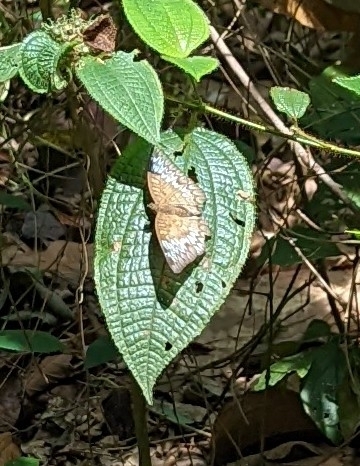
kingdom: Animalia
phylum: Arthropoda
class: Insecta
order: Lepidoptera
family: Nymphalidae
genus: Euthalia
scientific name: Euthalia monina
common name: Powdered baron
